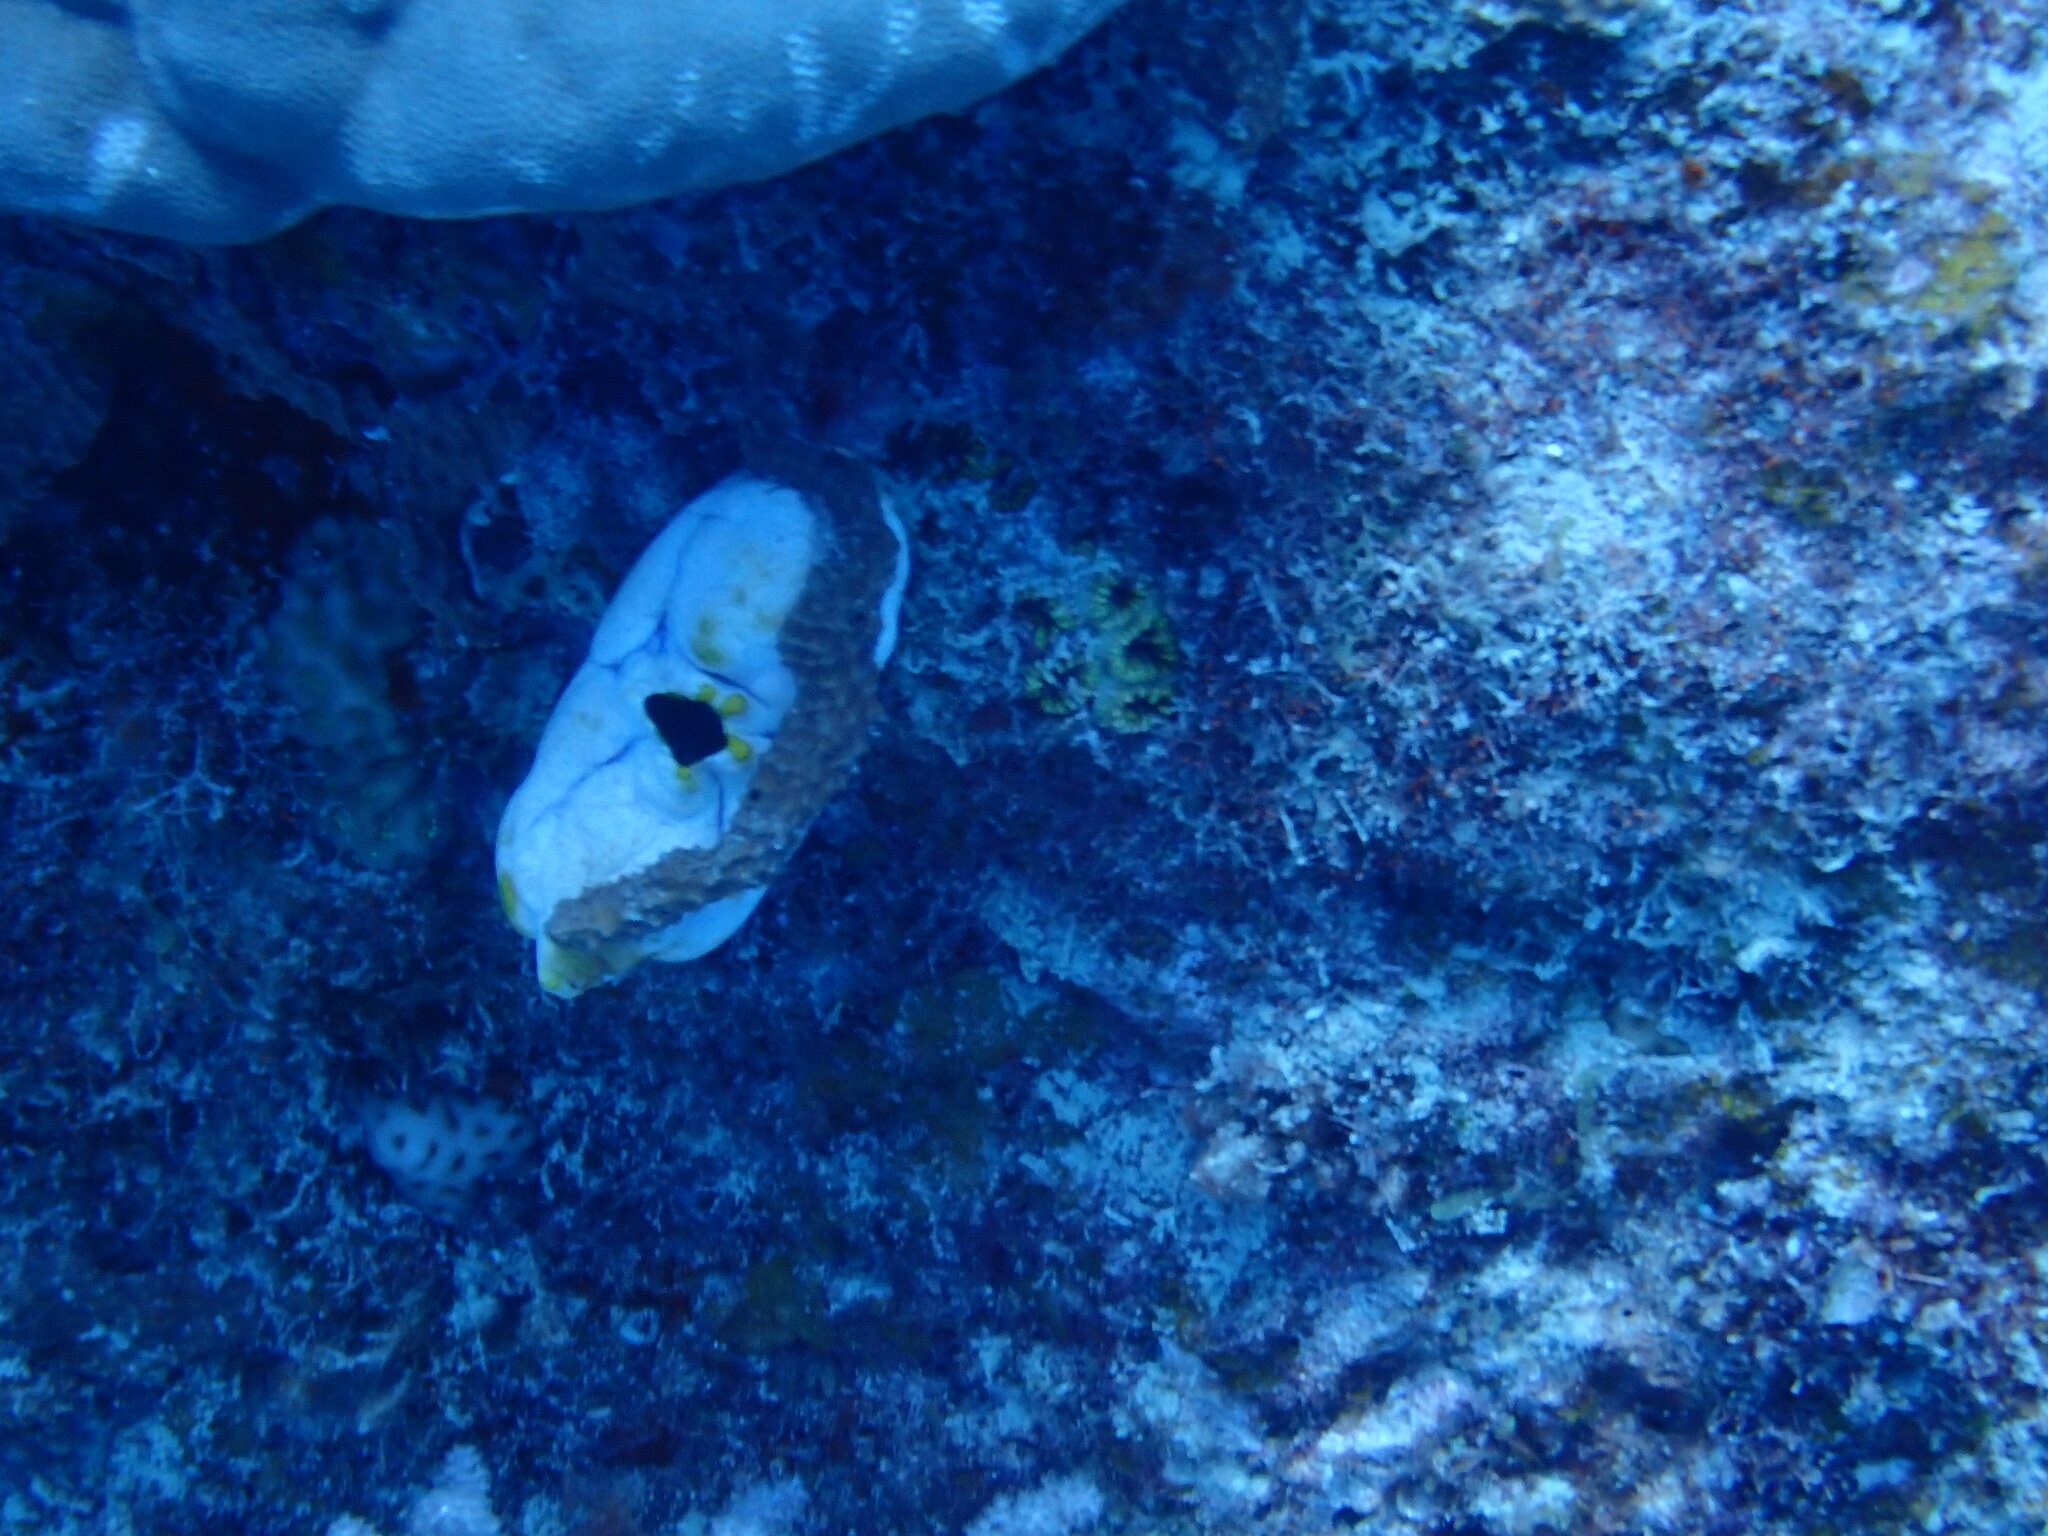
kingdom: Animalia
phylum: Chordata
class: Ascidiacea
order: Stolidobranchia
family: Styelidae
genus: Polycarpa
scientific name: Polycarpa aurata
